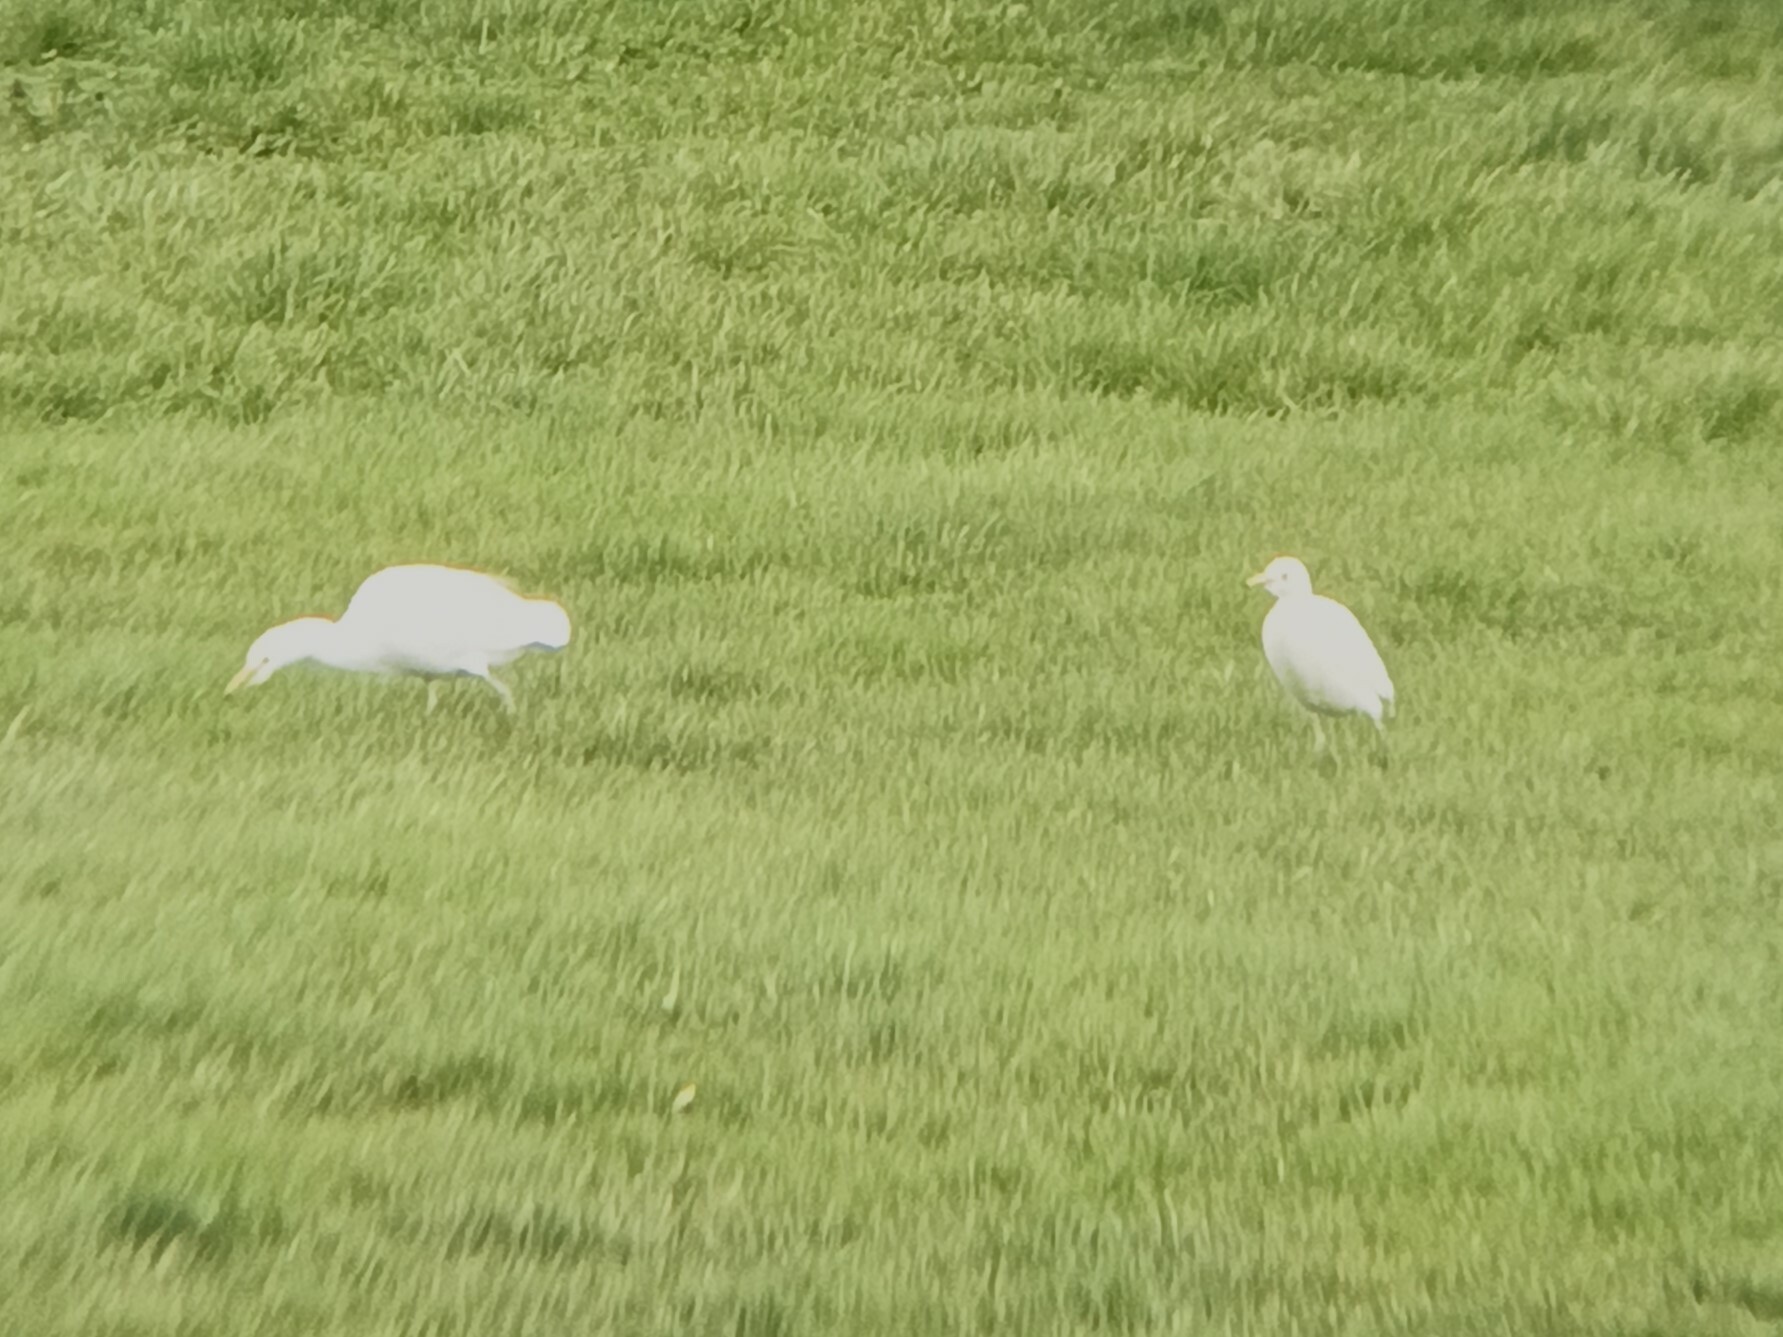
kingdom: Animalia
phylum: Chordata
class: Aves
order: Pelecaniformes
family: Ardeidae
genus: Bubulcus
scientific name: Bubulcus ibis
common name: Cattle egret
